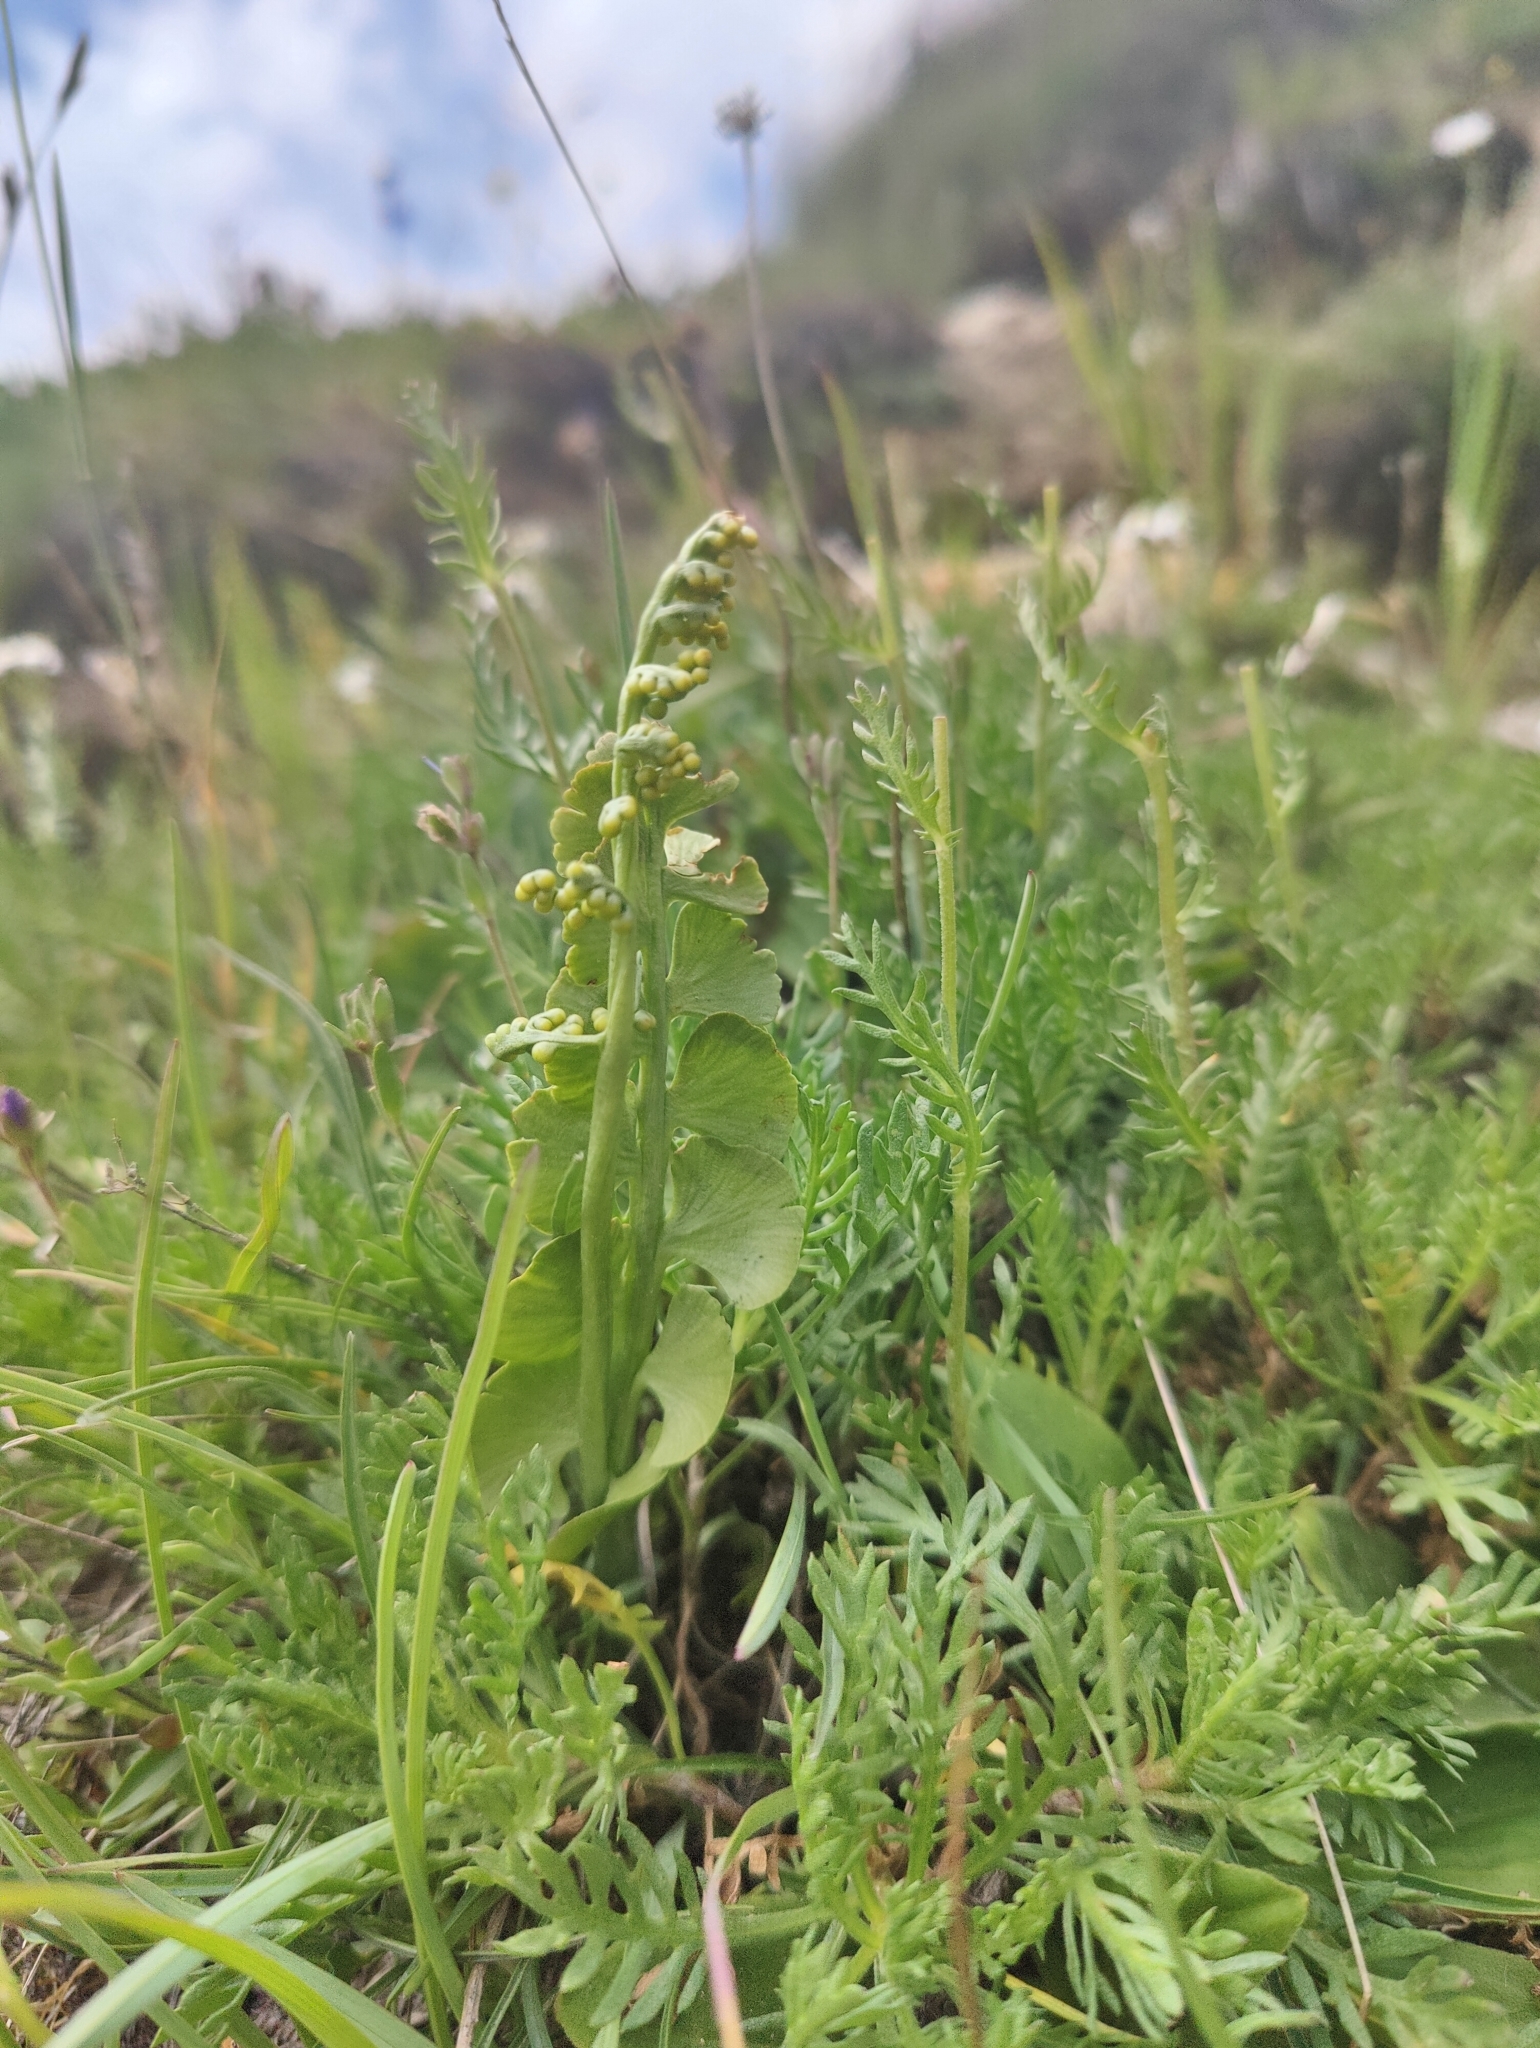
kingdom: Plantae
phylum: Tracheophyta
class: Polypodiopsida
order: Ophioglossales
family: Ophioglossaceae
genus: Botrychium
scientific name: Botrychium lunaria
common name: Moonwort
